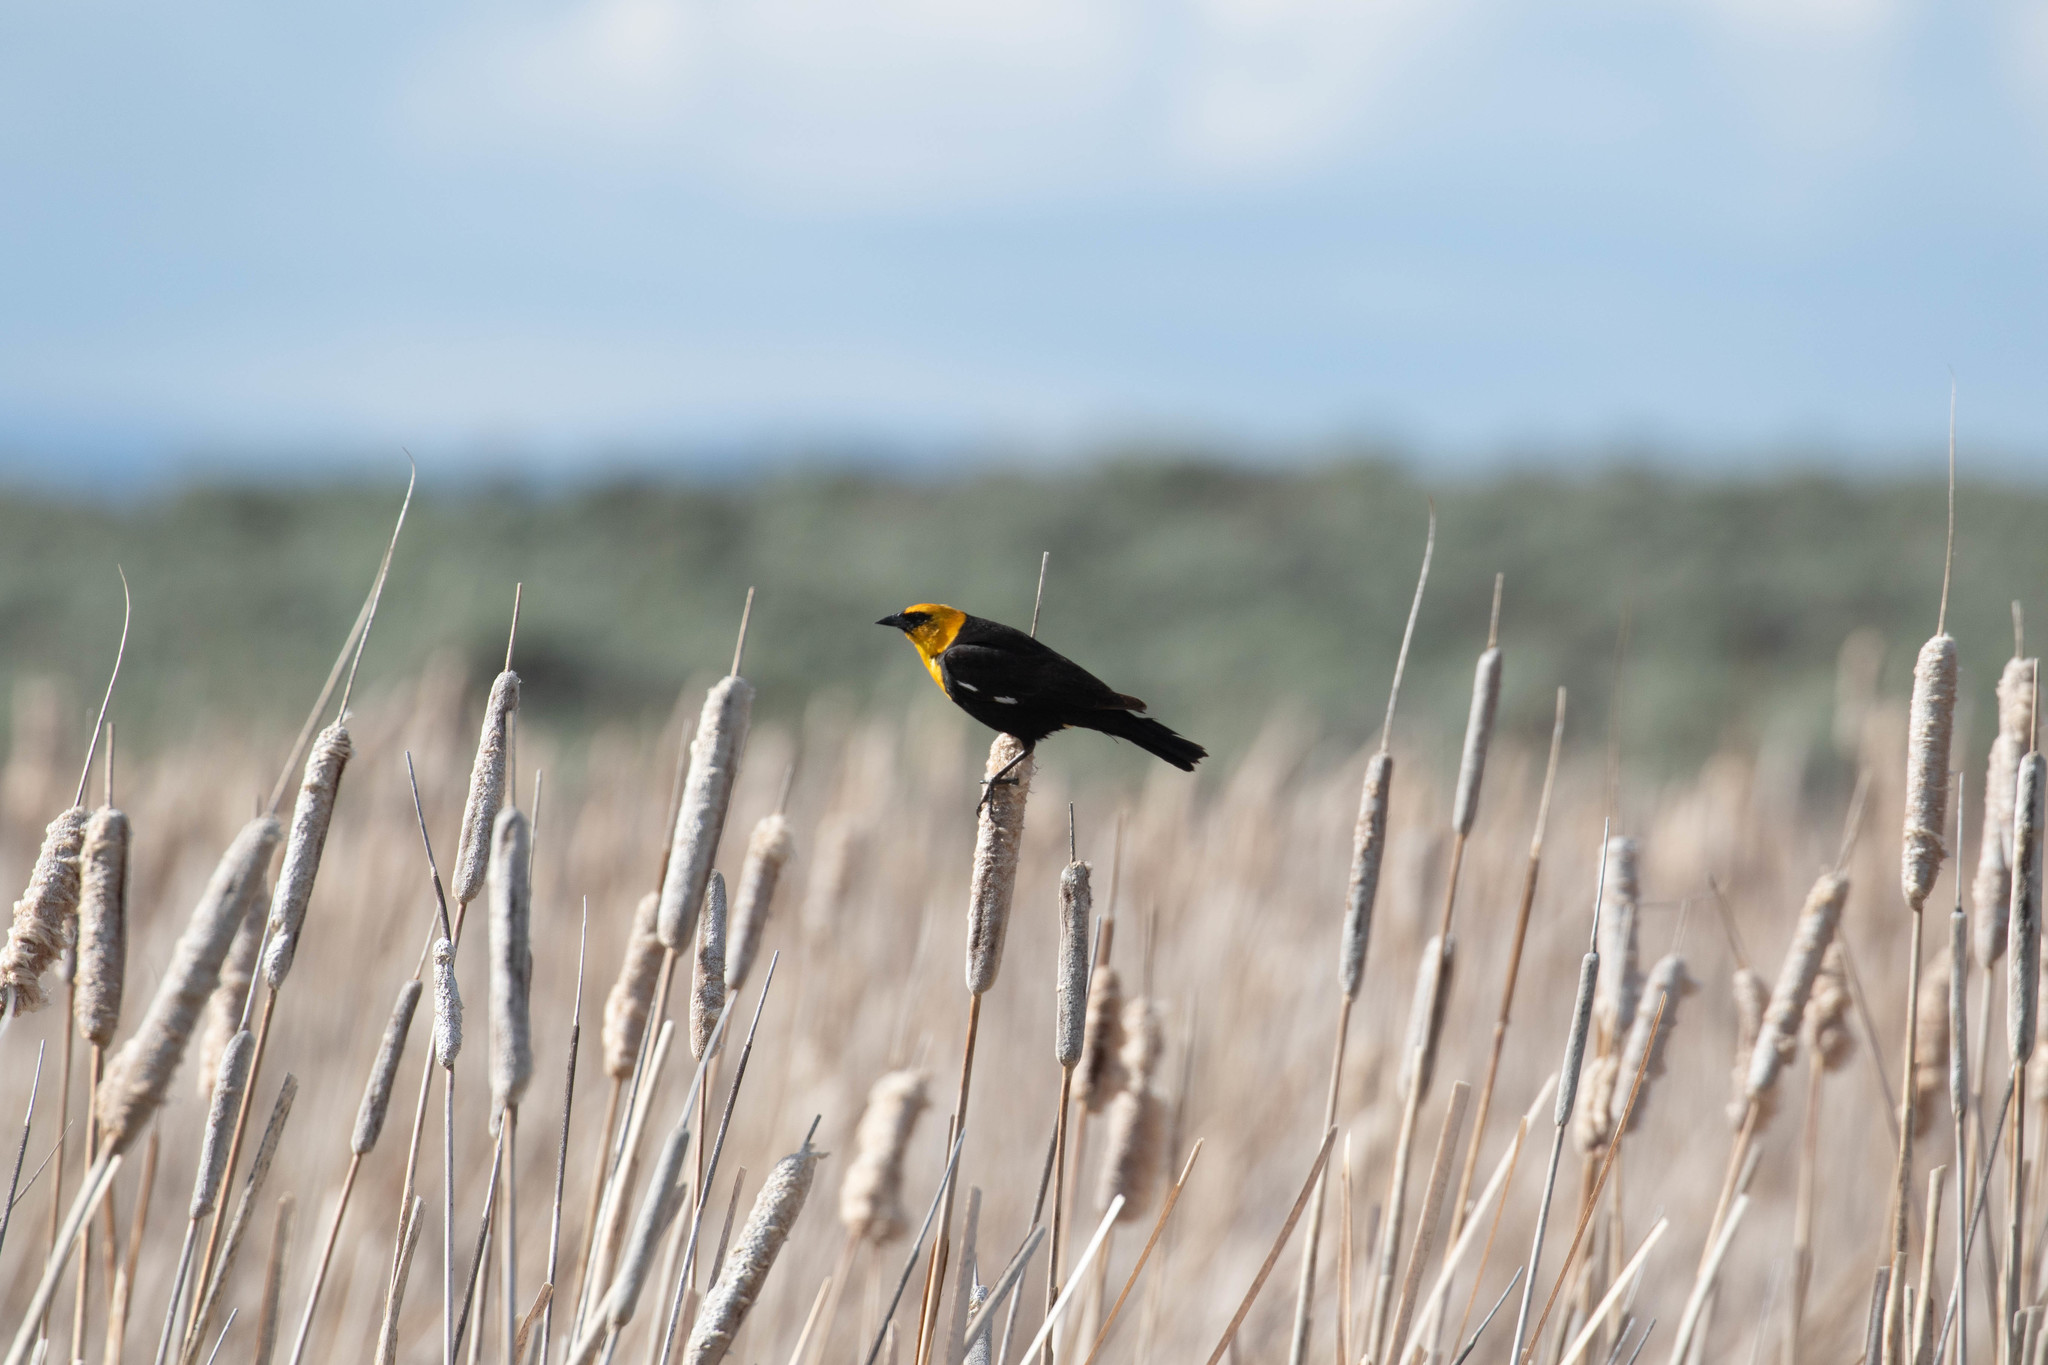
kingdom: Animalia
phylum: Chordata
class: Aves
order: Passeriformes
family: Icteridae
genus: Xanthocephalus
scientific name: Xanthocephalus xanthocephalus
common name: Yellow-headed blackbird
